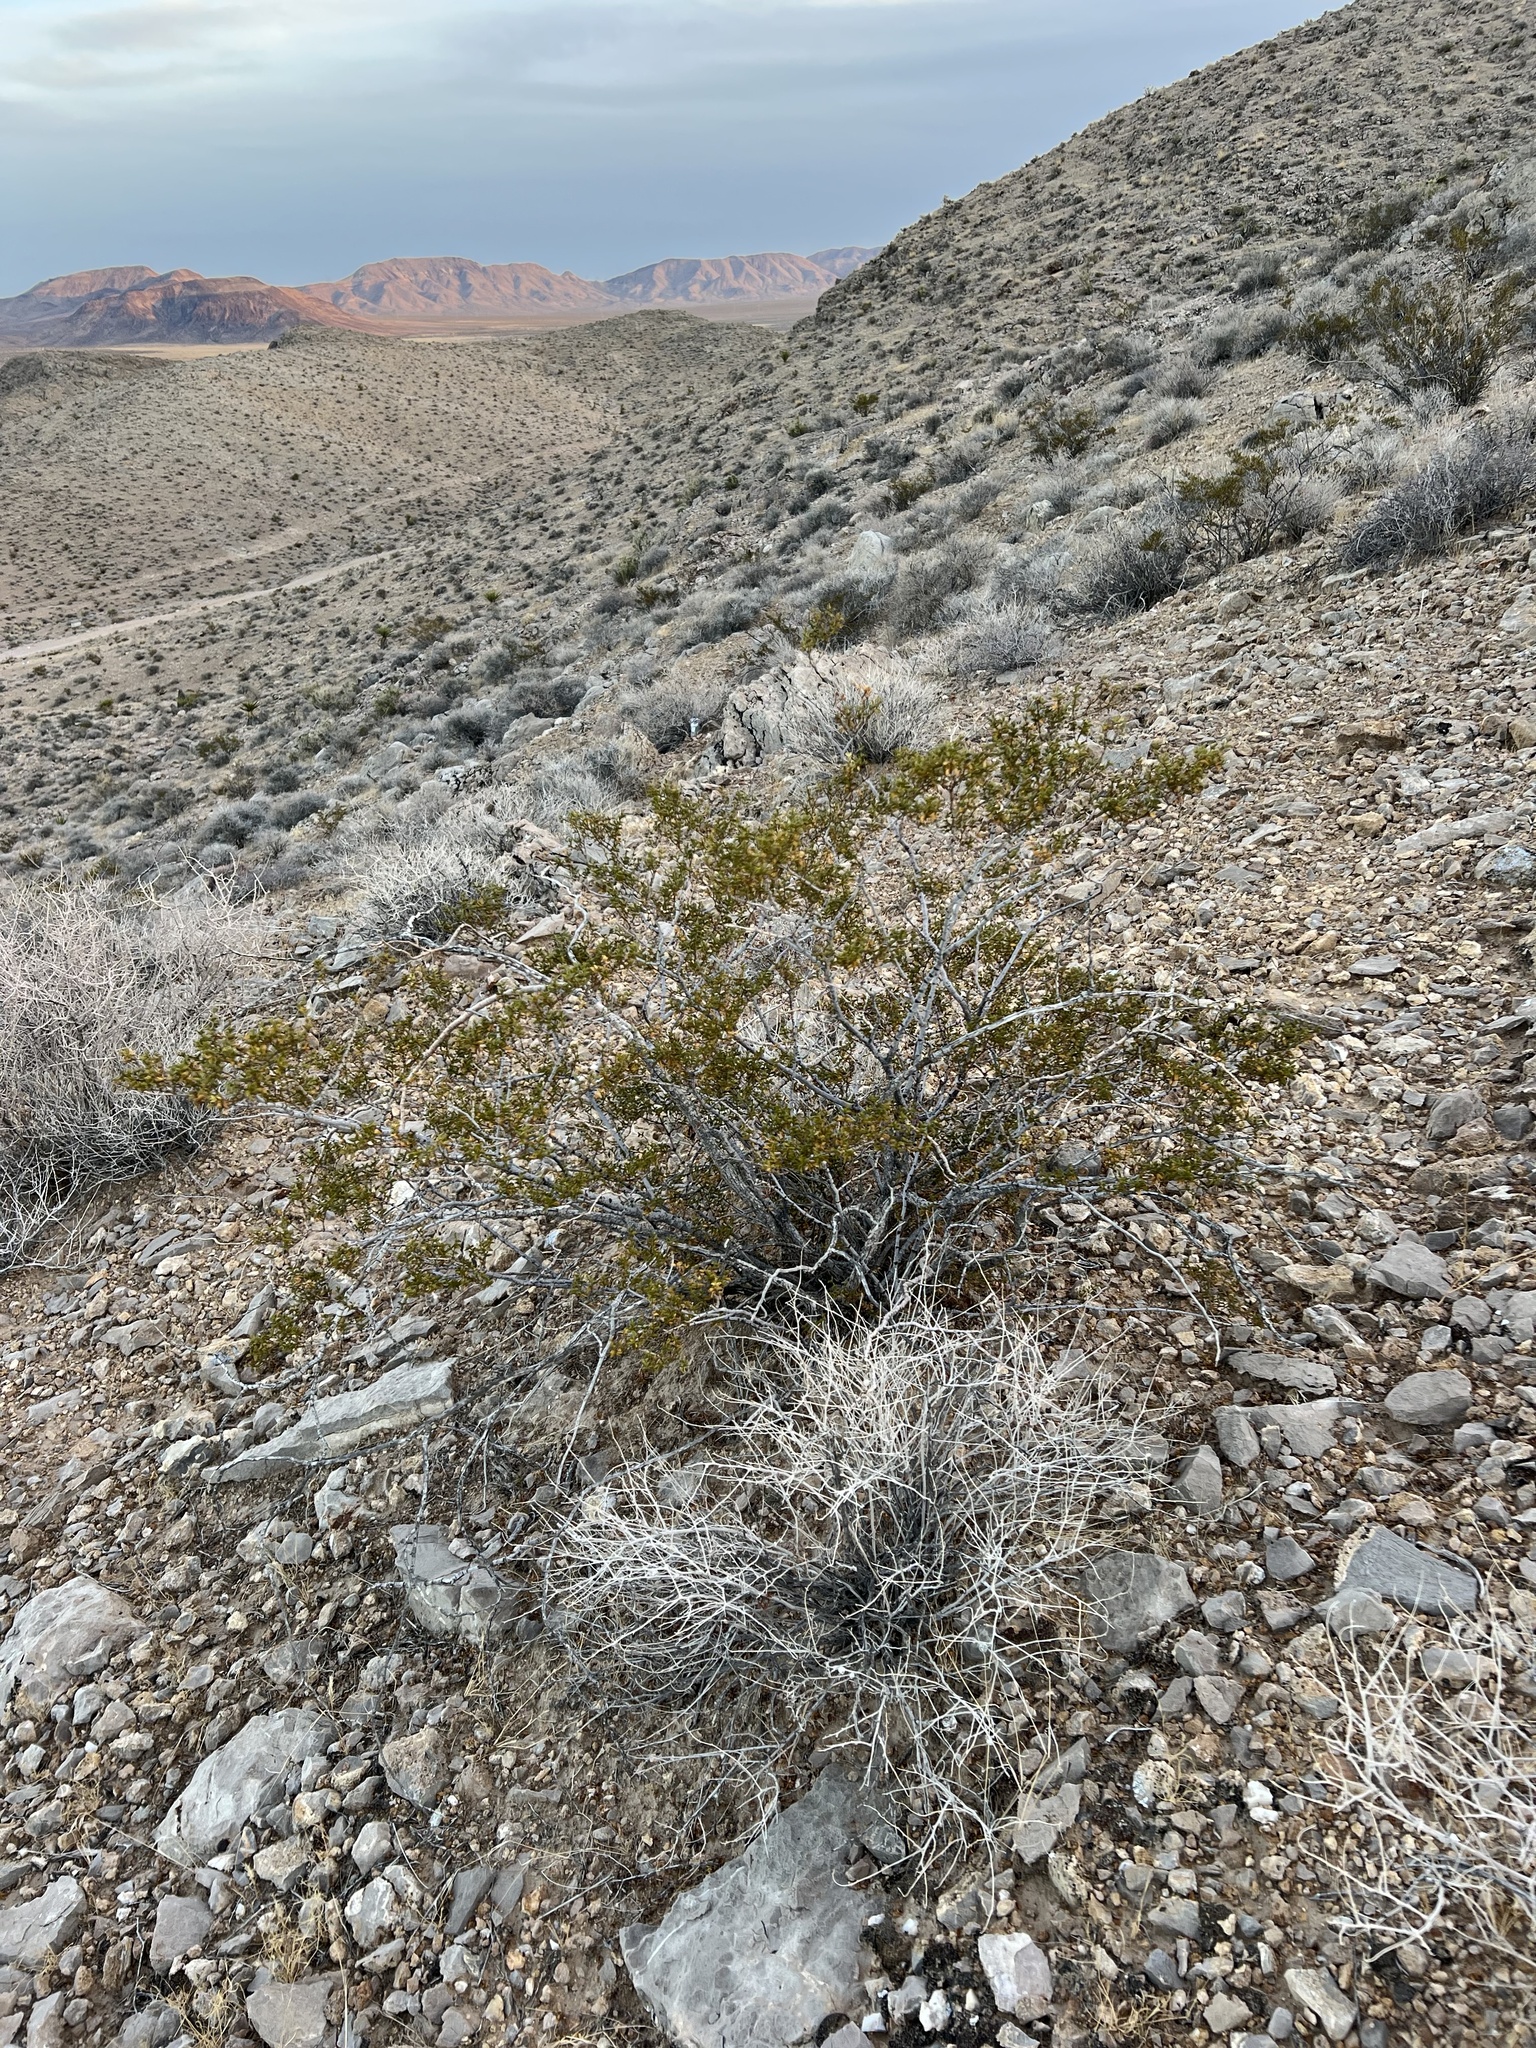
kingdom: Plantae
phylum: Tracheophyta
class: Magnoliopsida
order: Zygophyllales
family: Zygophyllaceae
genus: Larrea
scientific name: Larrea tridentata
